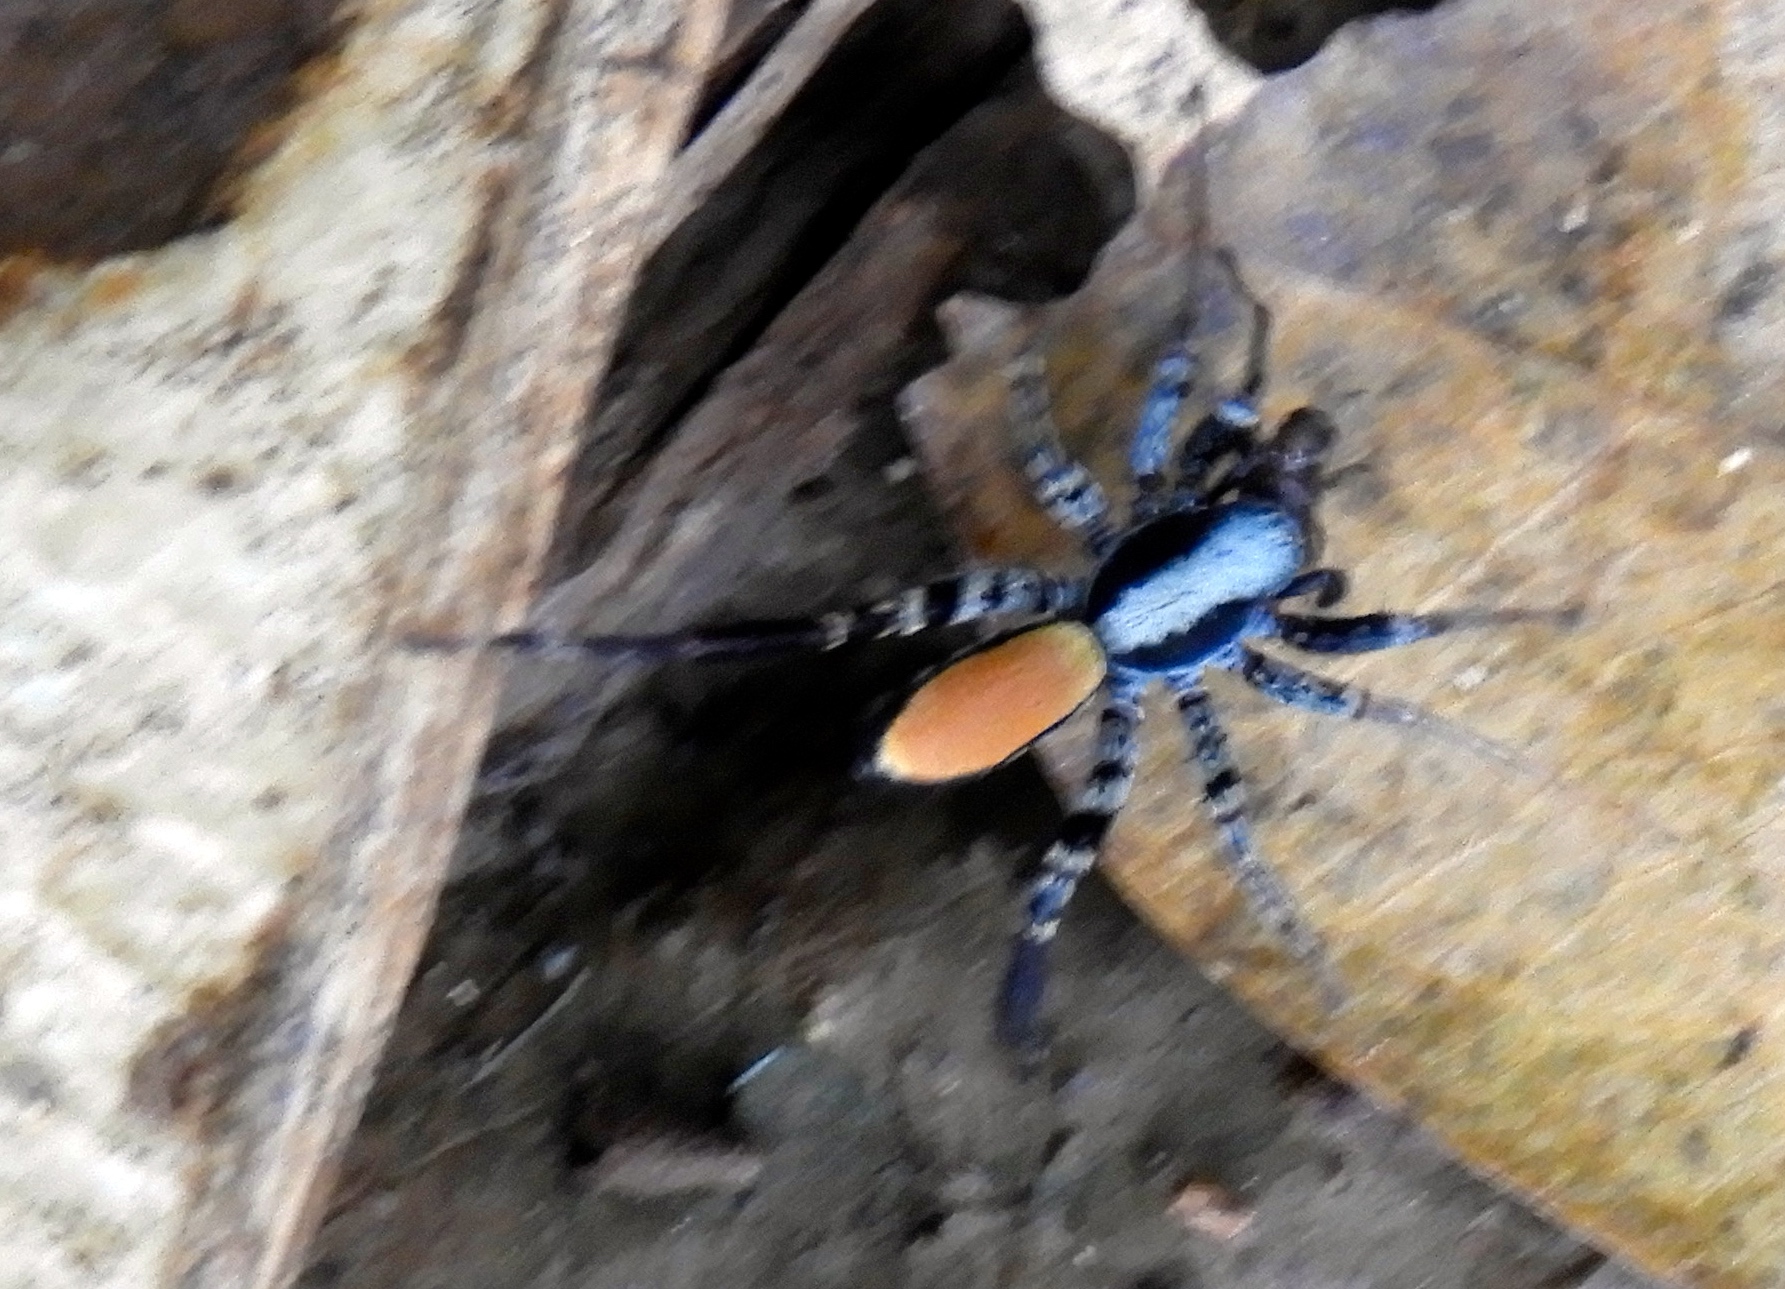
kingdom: Animalia
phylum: Arthropoda
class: Arachnida
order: Araneae
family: Corinnidae
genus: Castianeira
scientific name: Castianeira
